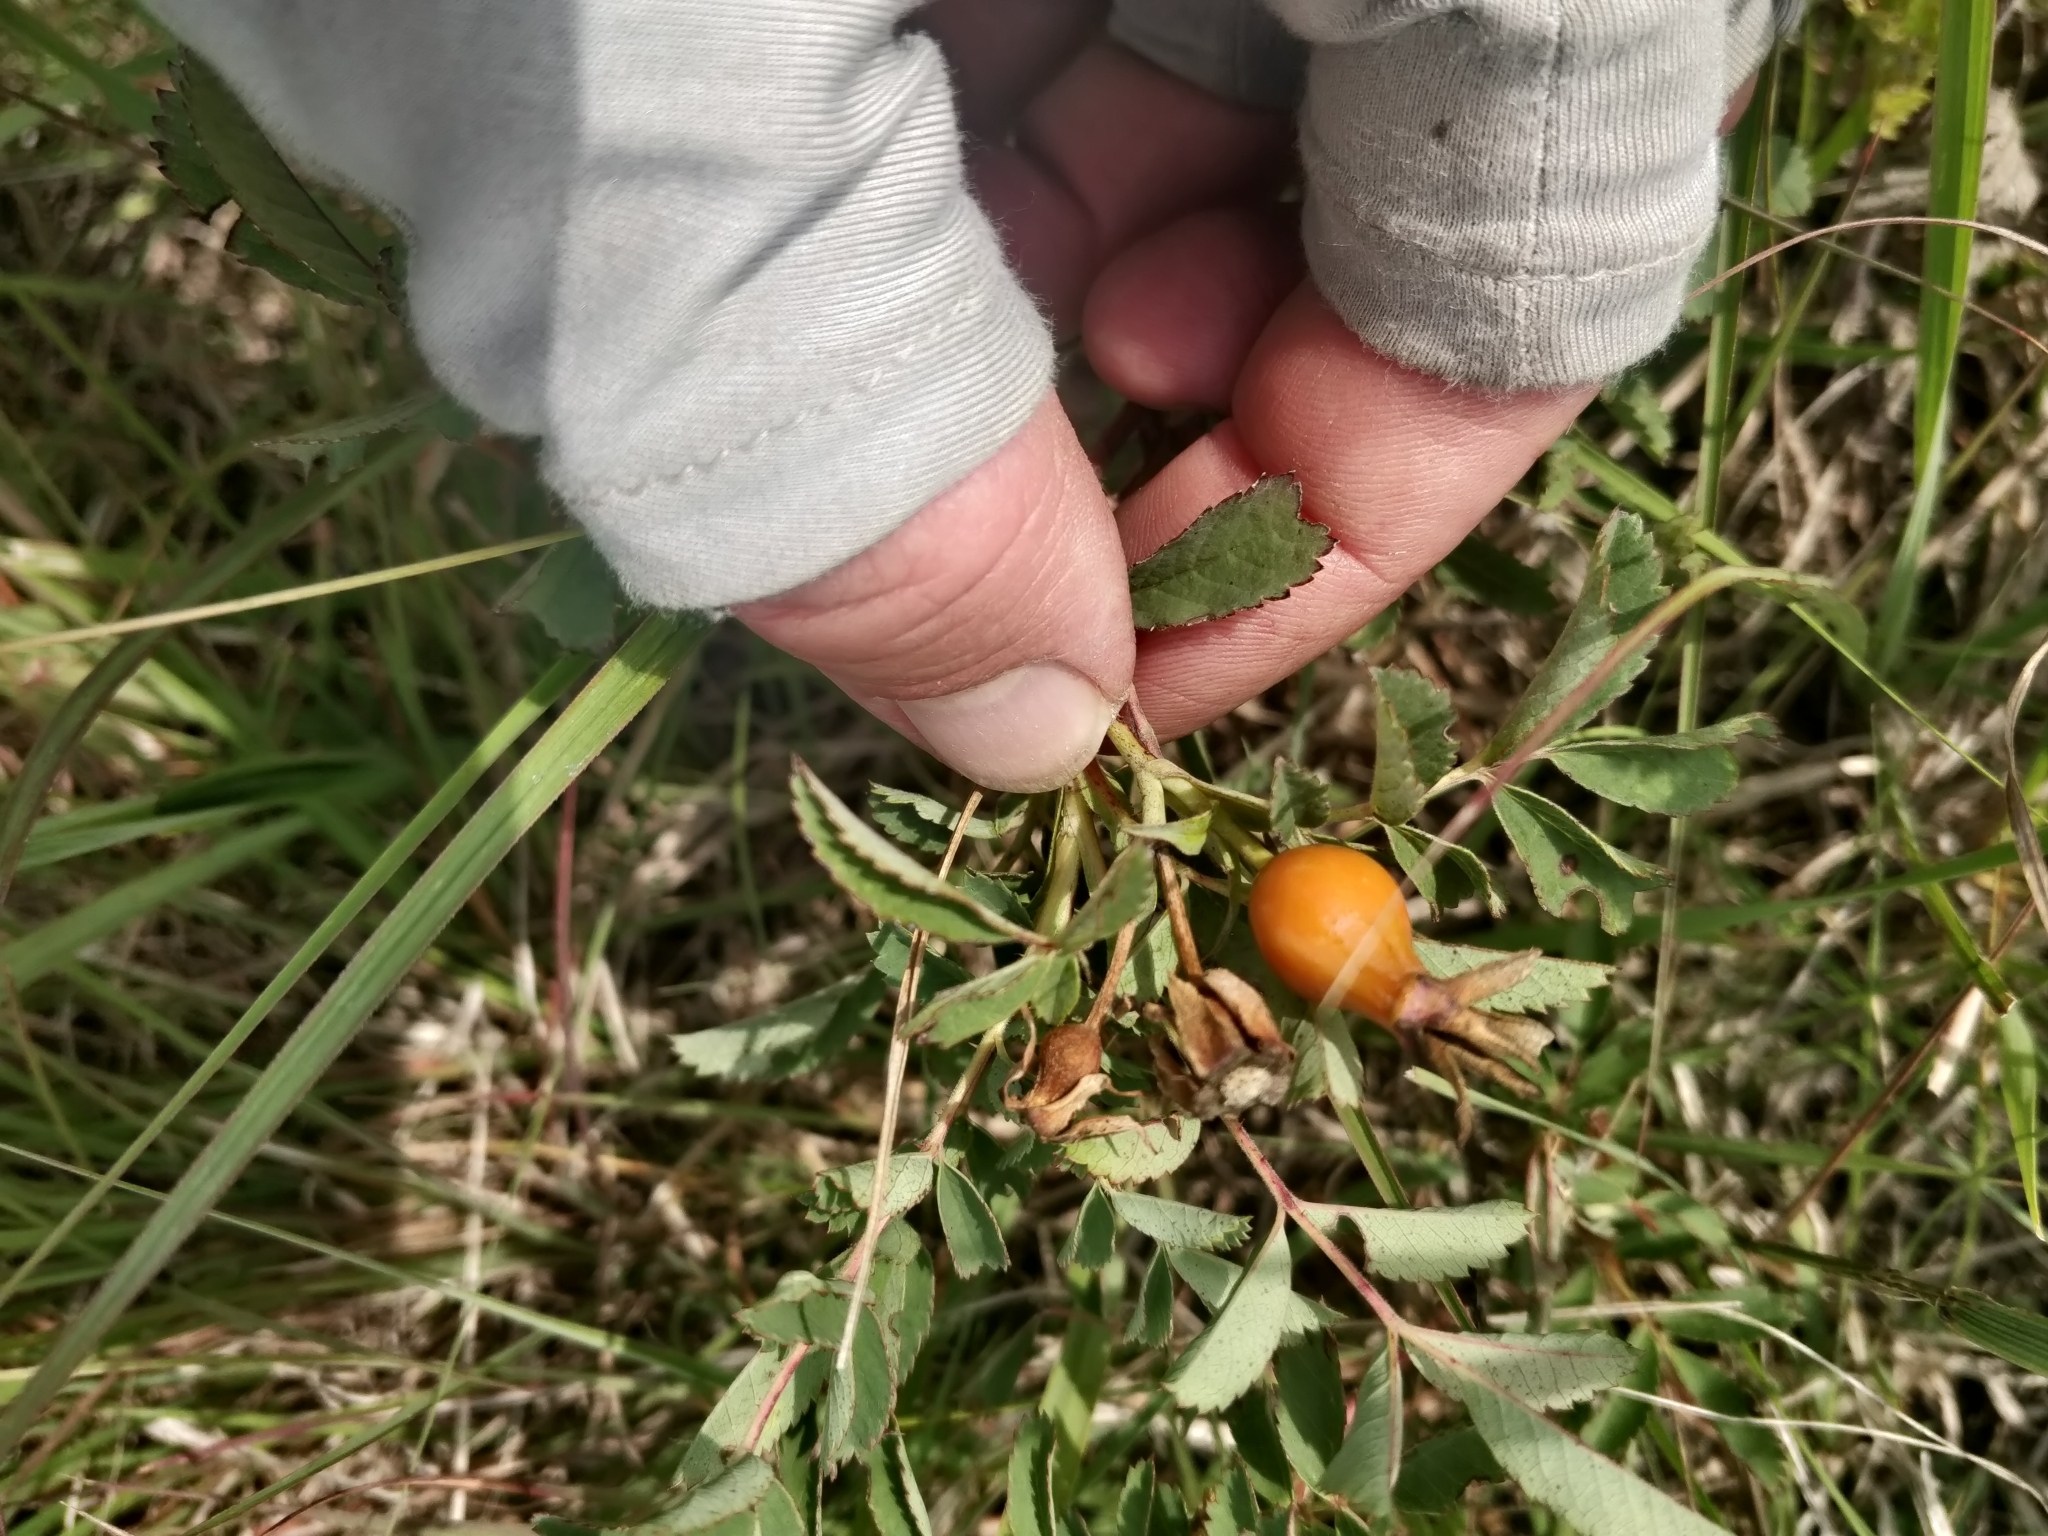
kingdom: Plantae
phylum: Tracheophyta
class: Magnoliopsida
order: Rosales
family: Rosaceae
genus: Rosa
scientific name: Rosa arkansana
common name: Prairie rose
